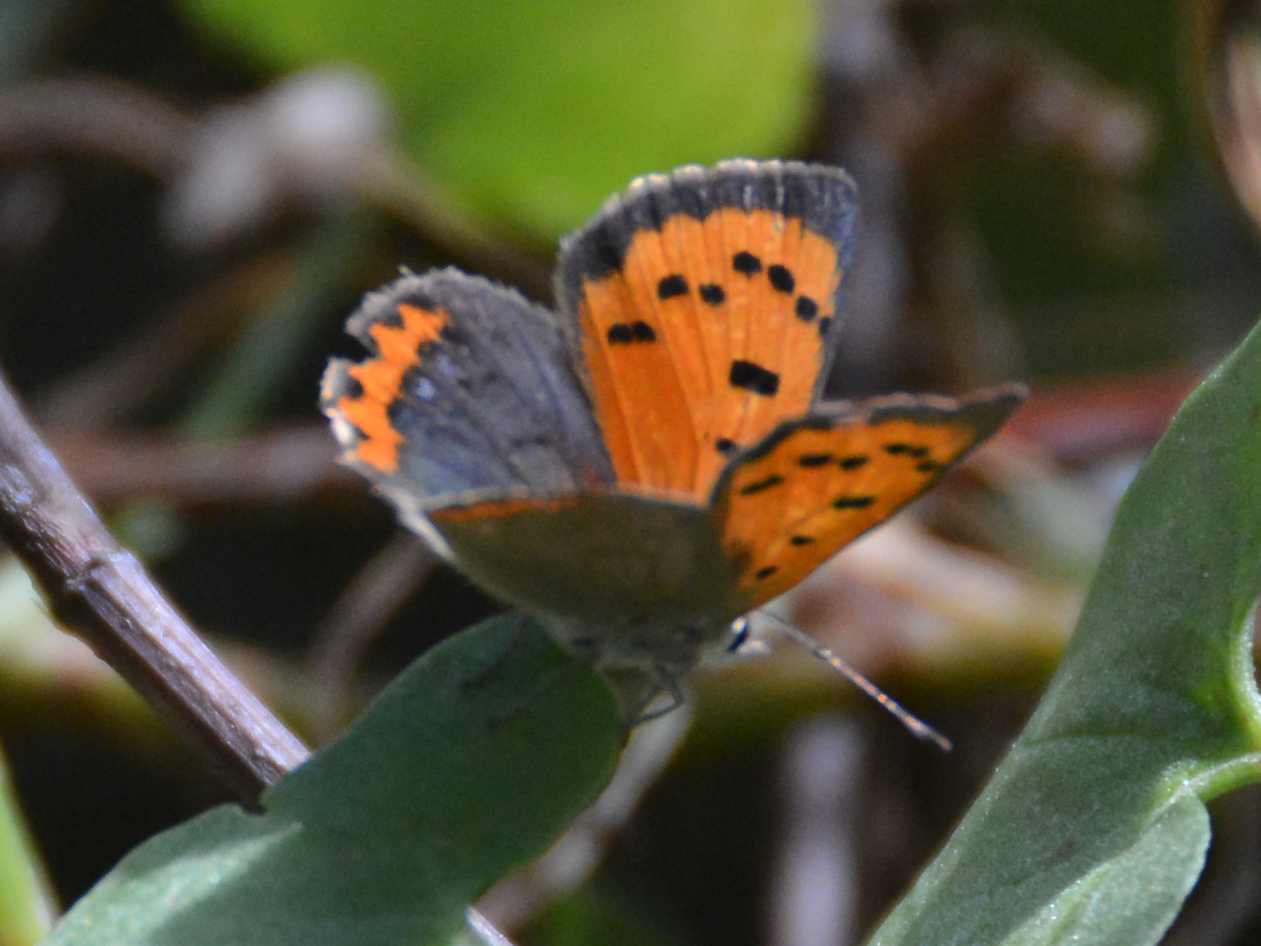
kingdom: Animalia
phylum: Arthropoda
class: Insecta
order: Lepidoptera
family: Lycaenidae
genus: Lycaena
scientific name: Lycaena phlaeas
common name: Small copper
